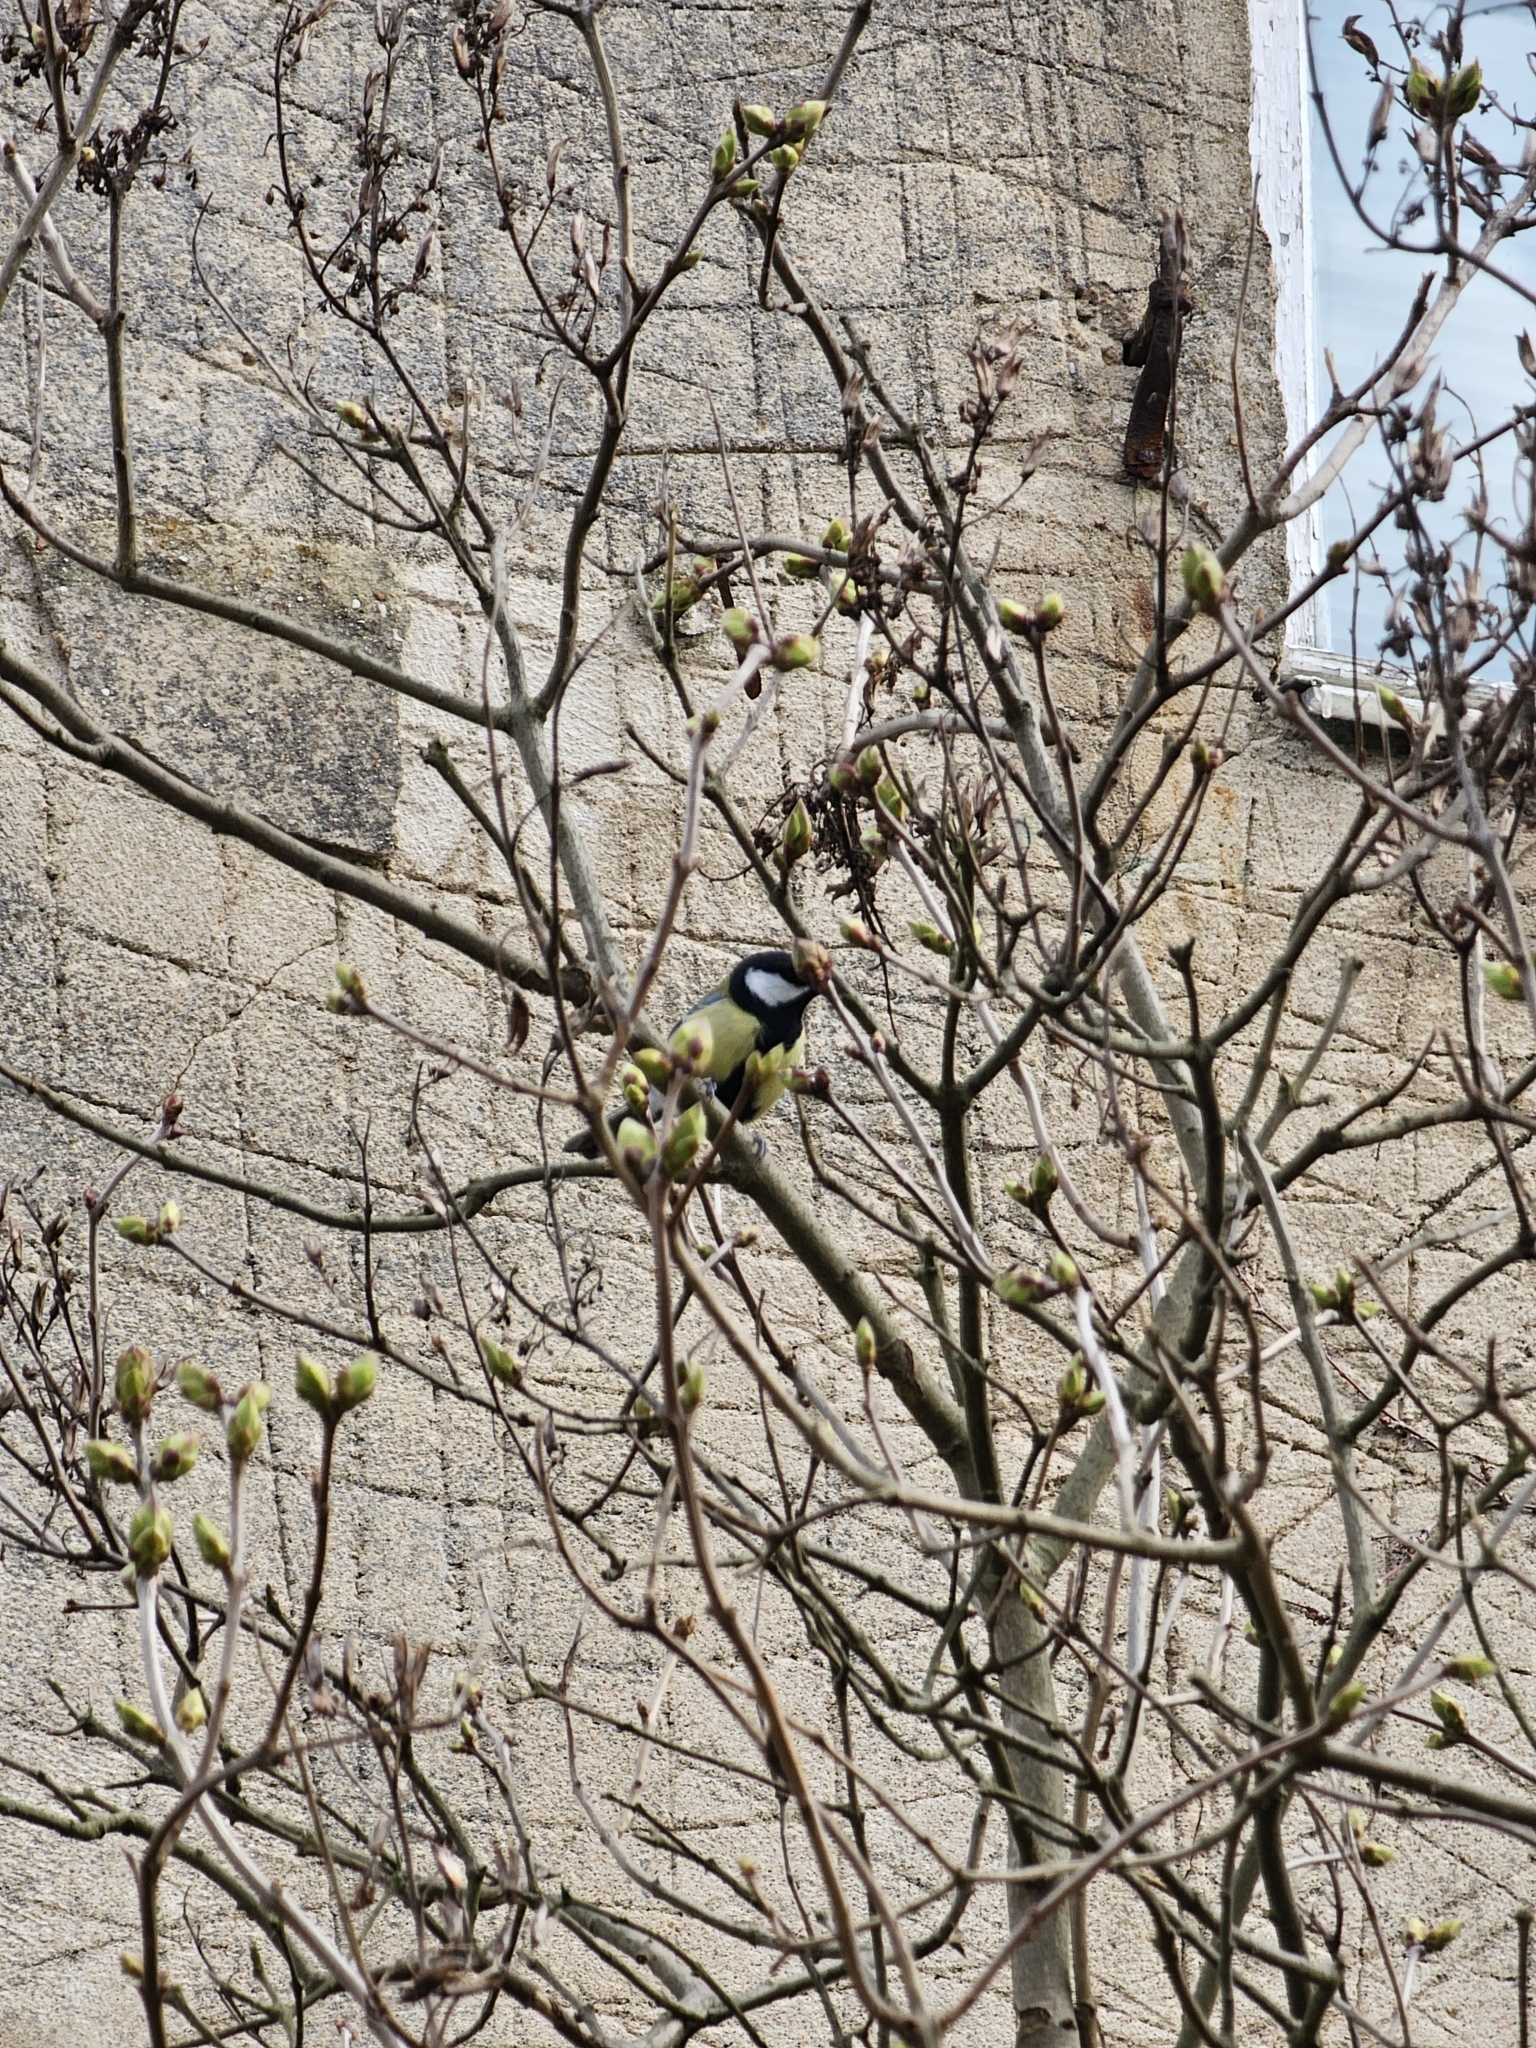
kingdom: Animalia
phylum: Chordata
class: Aves
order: Passeriformes
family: Paridae
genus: Parus
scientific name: Parus major
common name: Great tit
